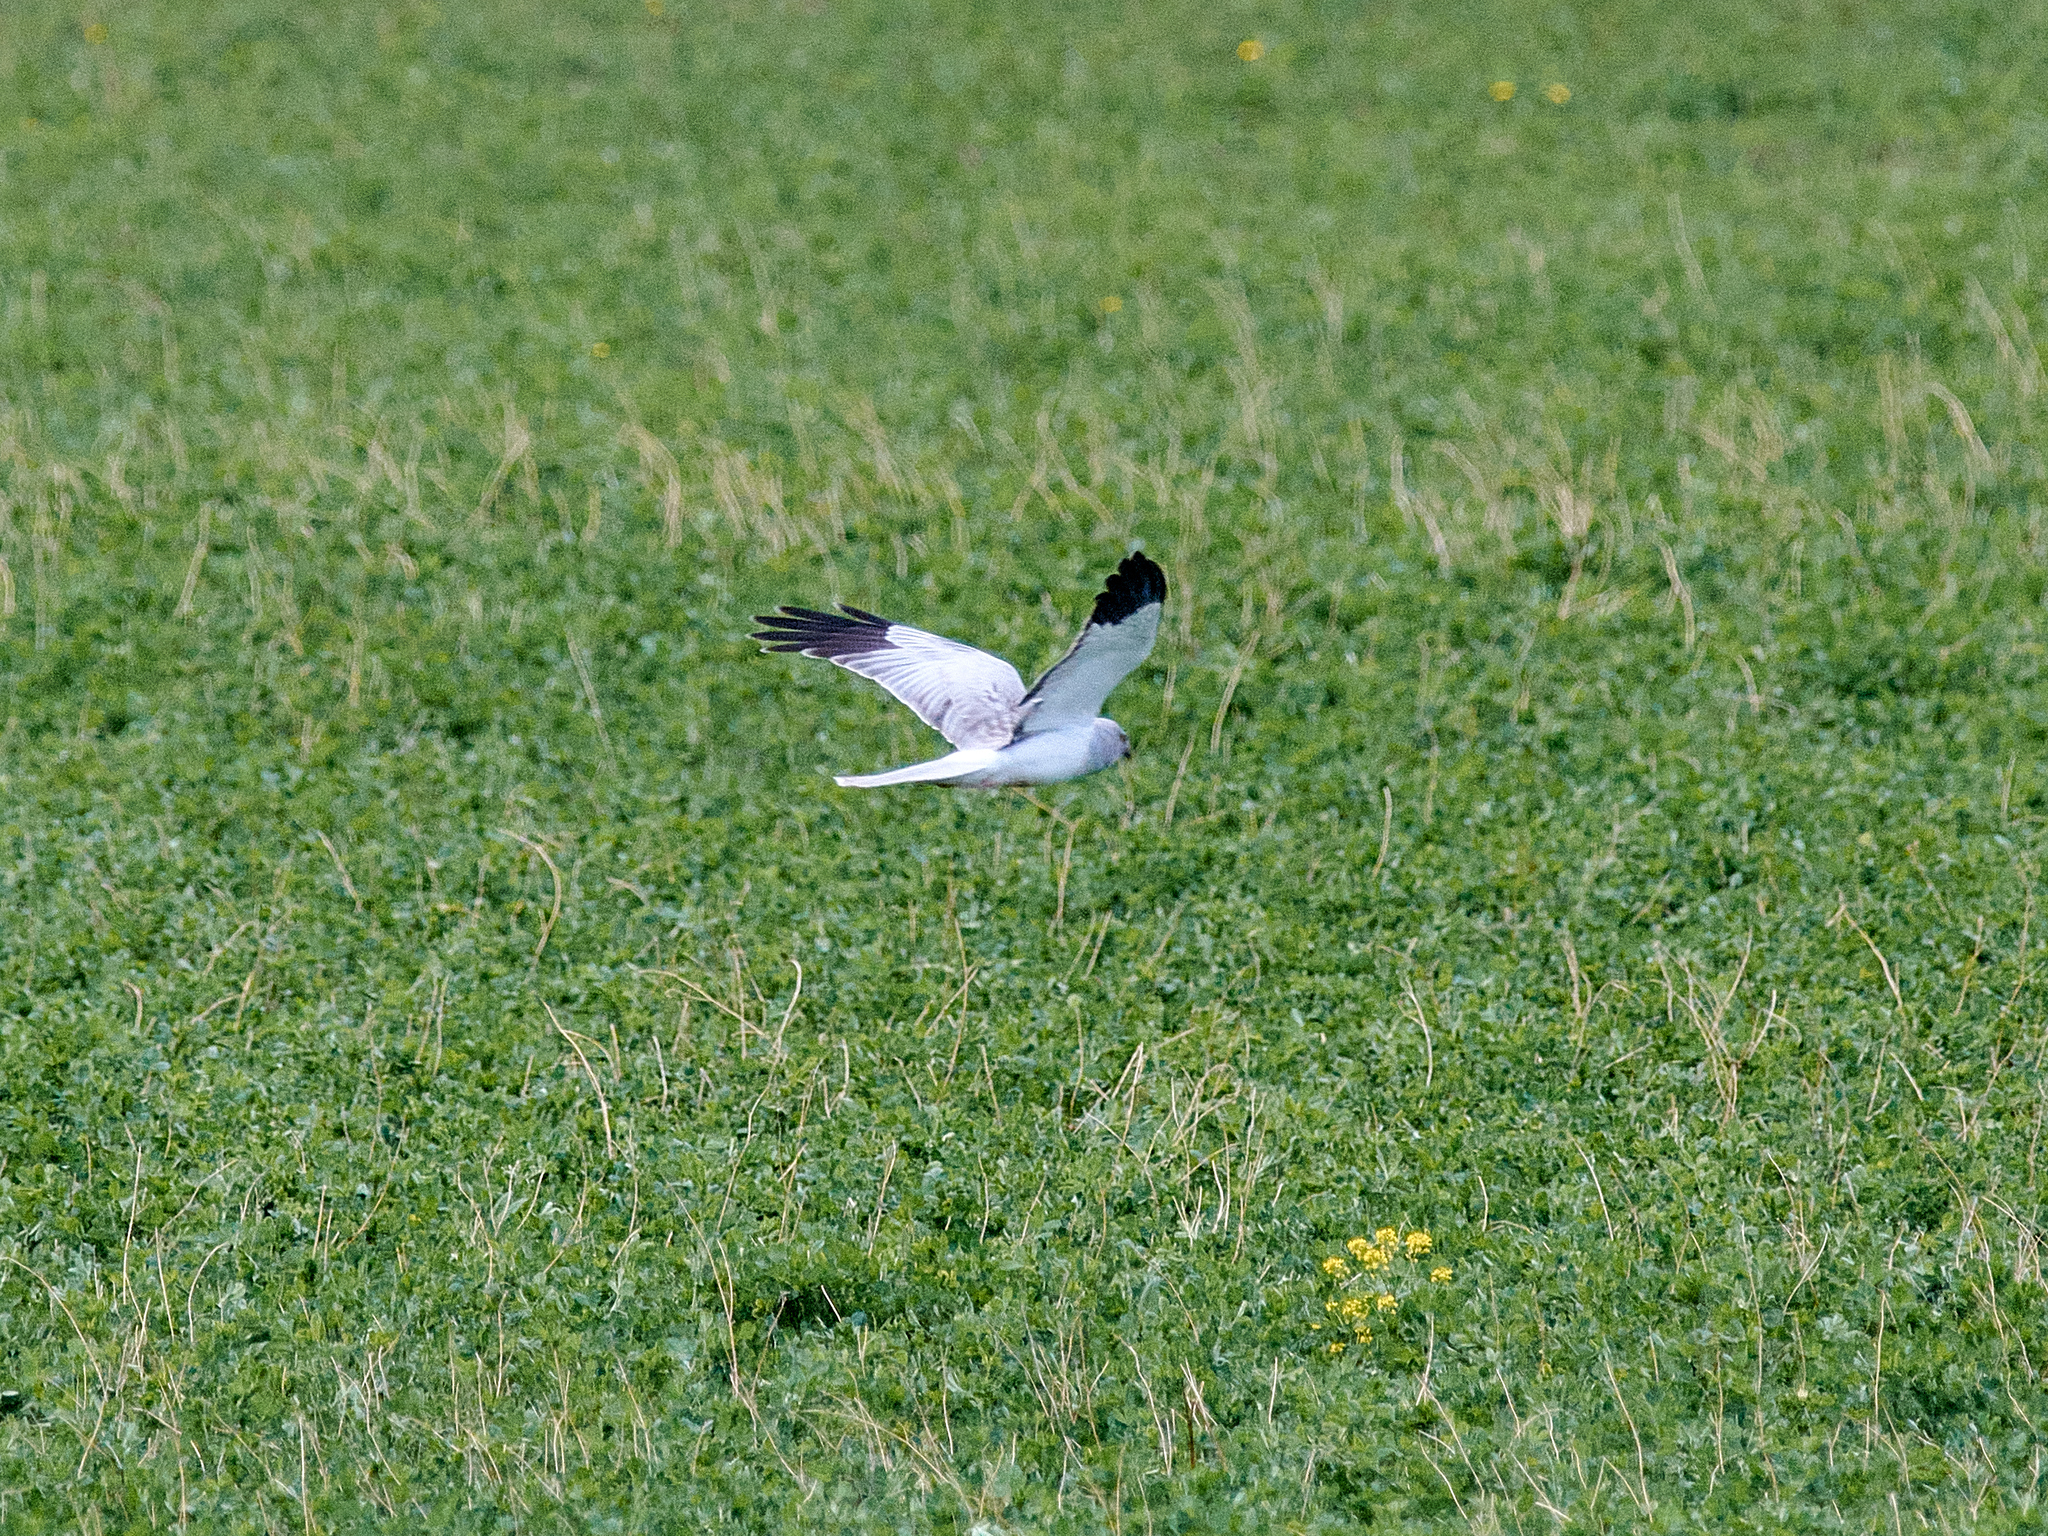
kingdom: Animalia
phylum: Chordata
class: Aves
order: Accipitriformes
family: Accipitridae
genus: Circus
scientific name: Circus cyaneus
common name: Hen harrier
